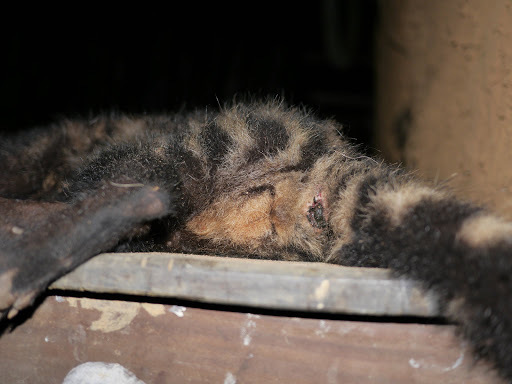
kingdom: Animalia
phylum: Chordata
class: Mammalia
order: Carnivora
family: Viverridae
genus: Civettictis
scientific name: Civettictis civetta
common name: African civet
